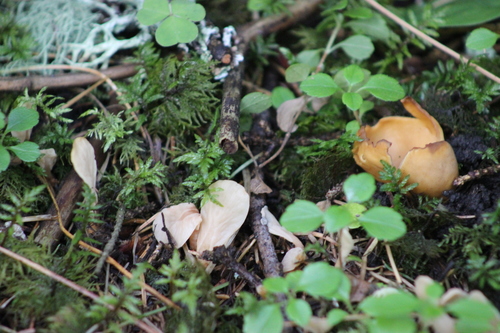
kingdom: Fungi
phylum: Ascomycota
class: Pezizomycetes
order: Pezizales
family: Otideaceae
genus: Otidea
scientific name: Otidea onotica
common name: Hare's ear
